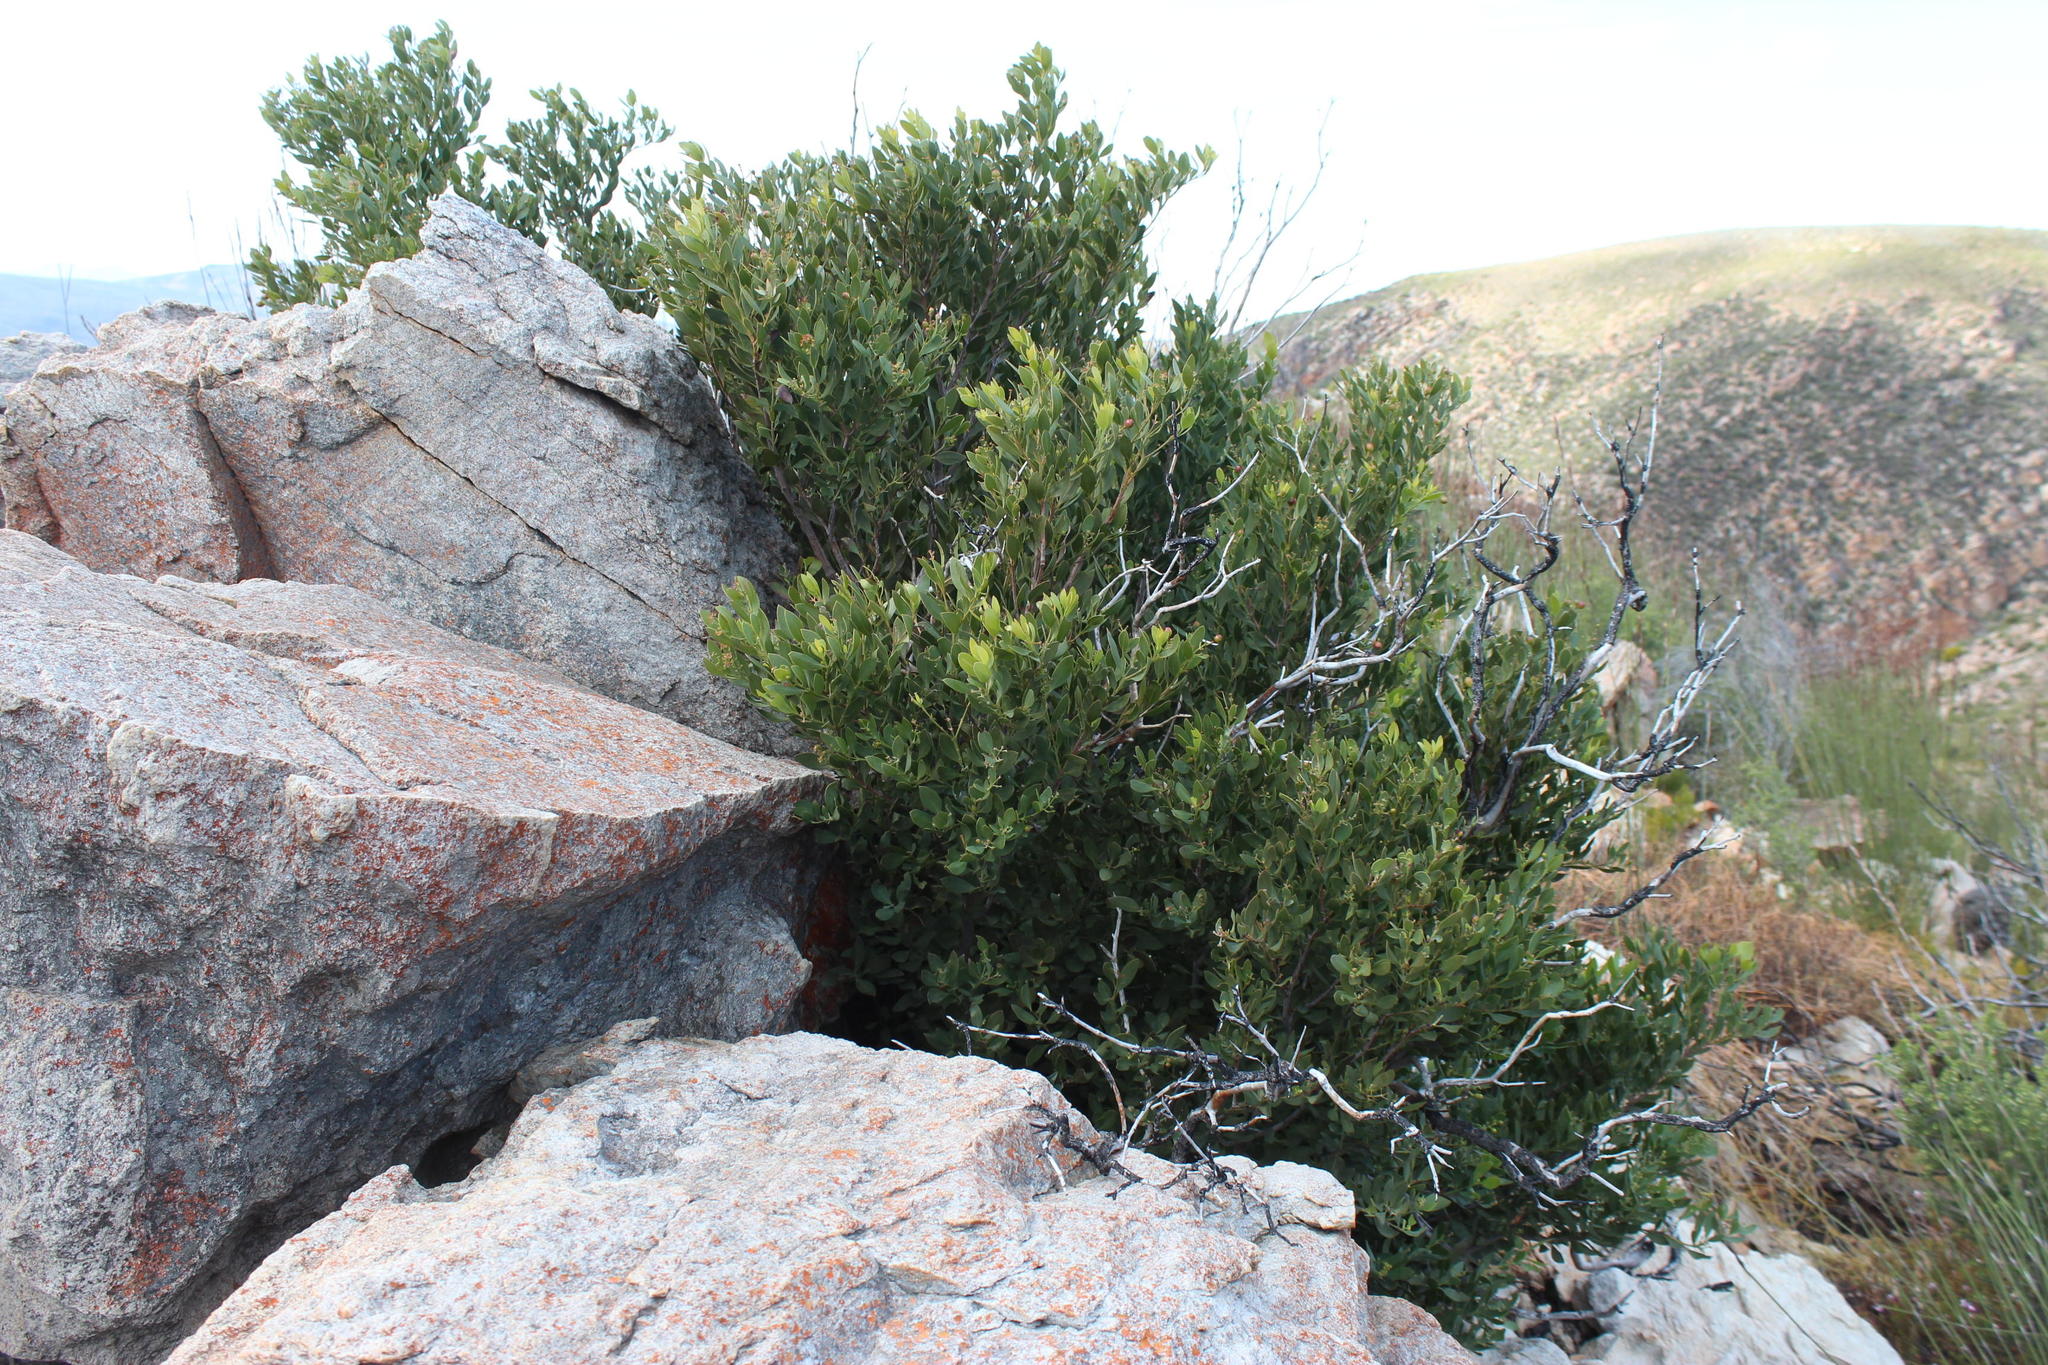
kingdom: Plantae
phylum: Tracheophyta
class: Magnoliopsida
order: Santalales
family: Santalaceae
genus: Osyris
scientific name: Osyris compressa
